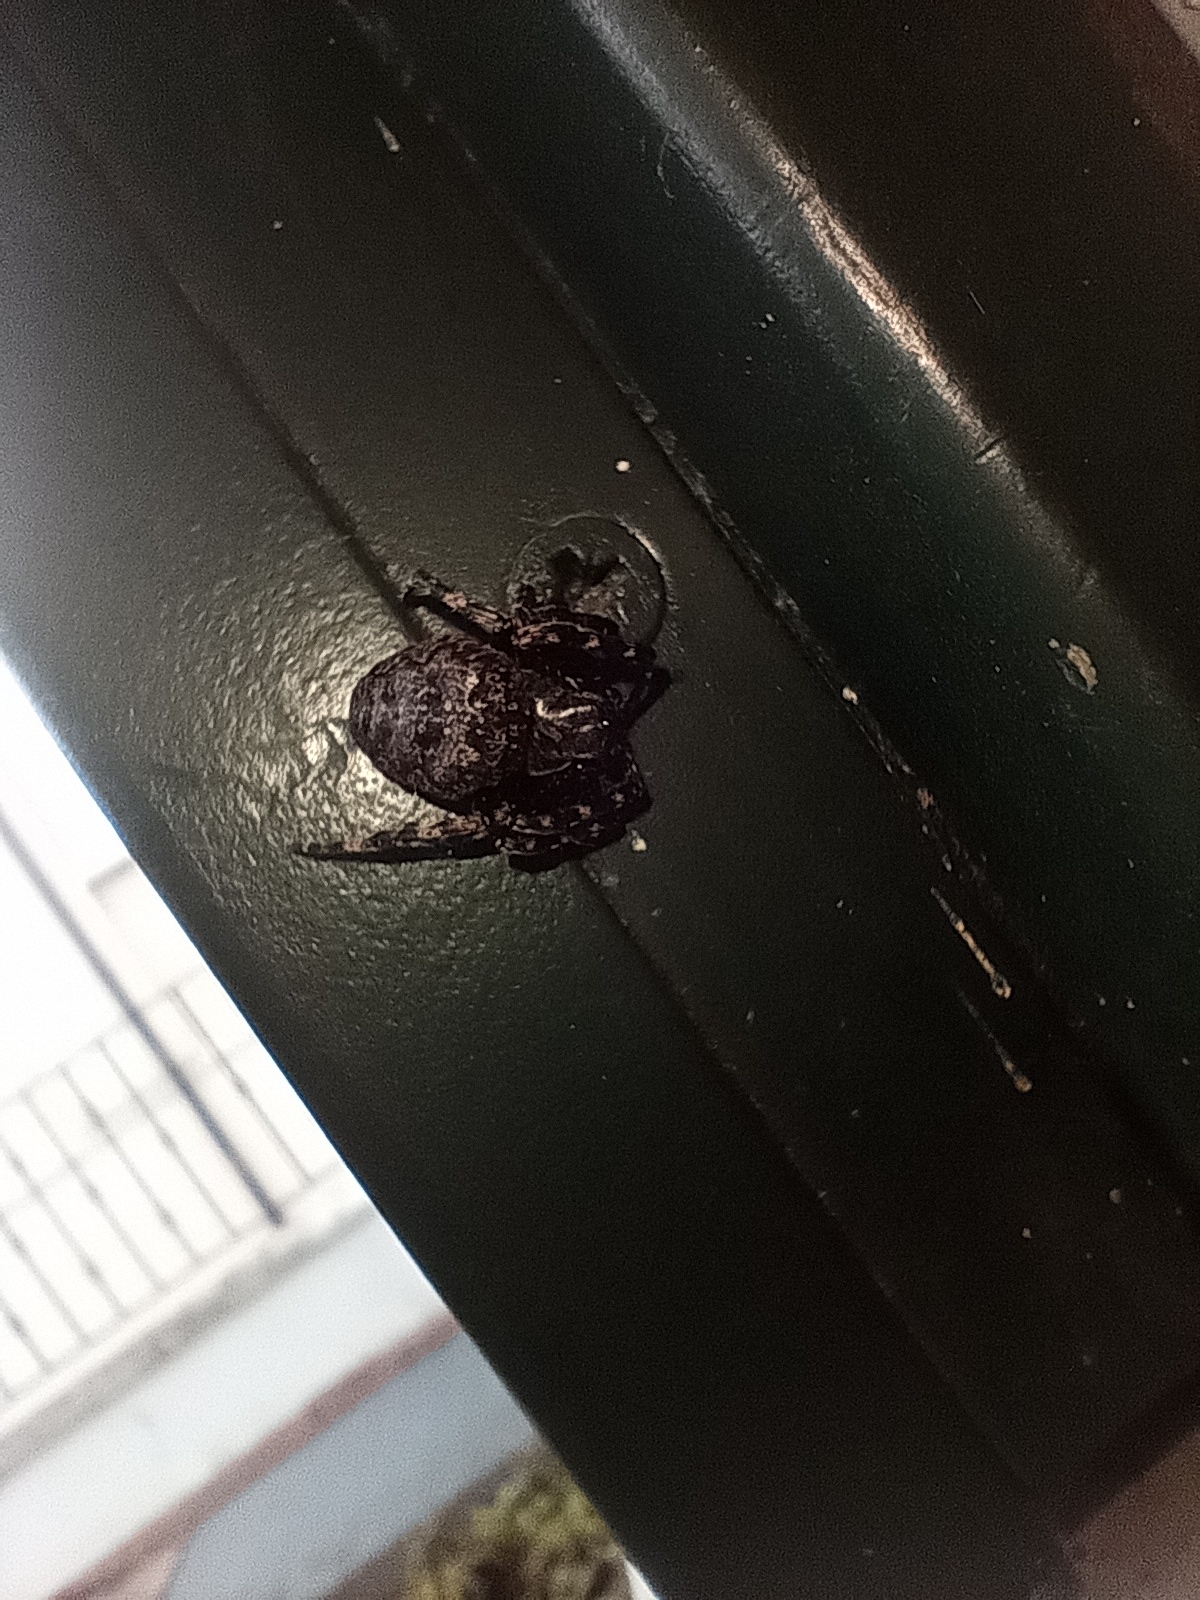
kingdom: Animalia
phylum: Arthropoda
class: Arachnida
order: Araneae
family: Araneidae
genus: Nuctenea
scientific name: Nuctenea umbratica
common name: Toad spider
